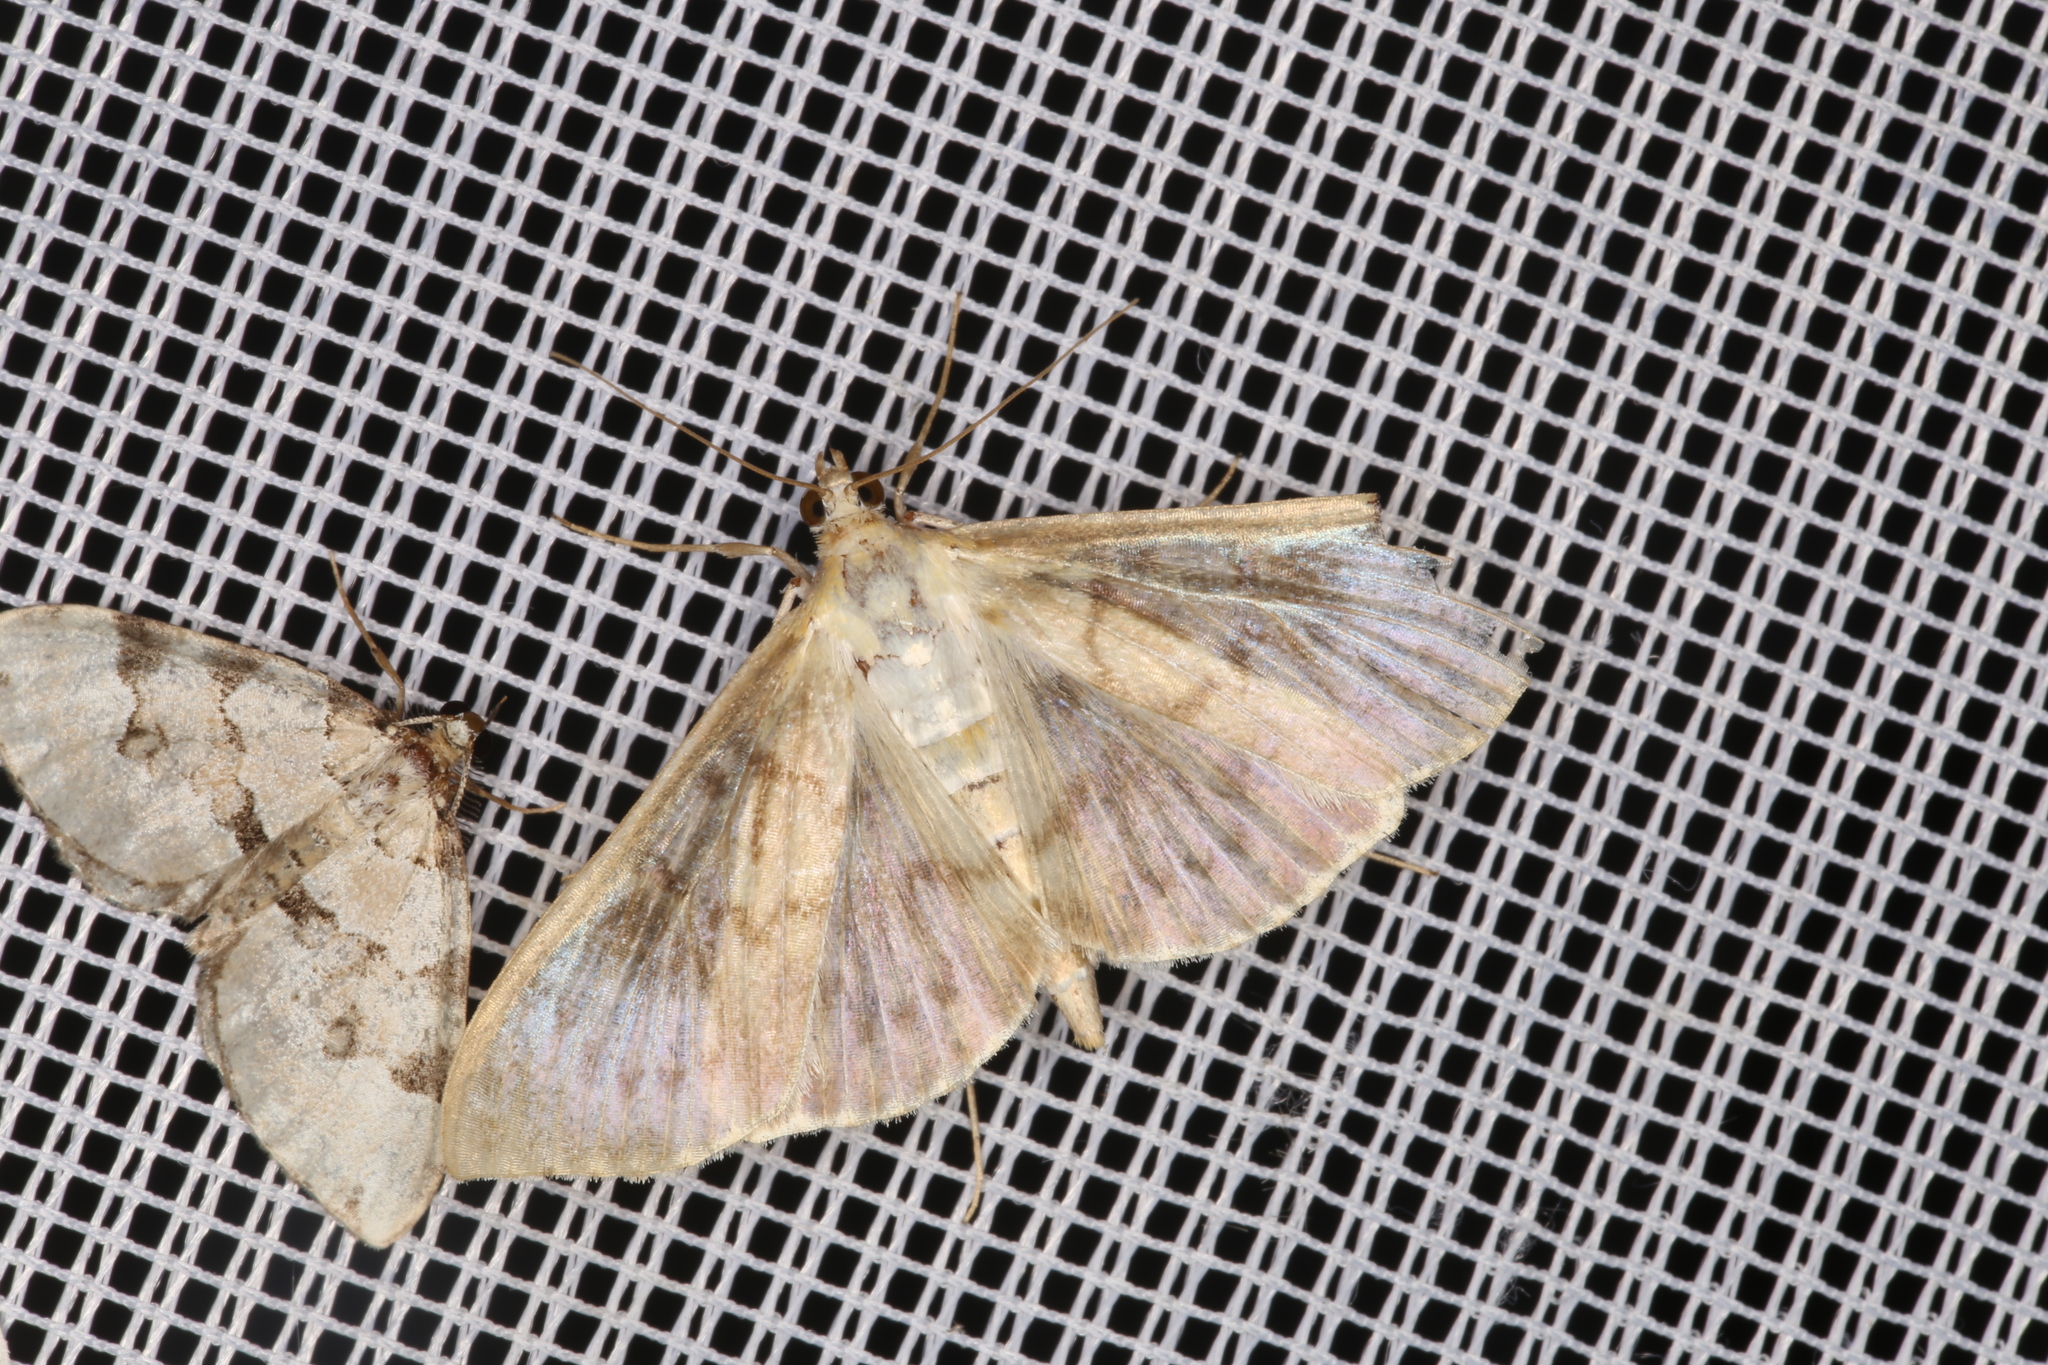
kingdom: Animalia
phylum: Arthropoda
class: Insecta
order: Lepidoptera
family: Crambidae
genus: Patania
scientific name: Patania ruralis
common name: Mother of pearl
